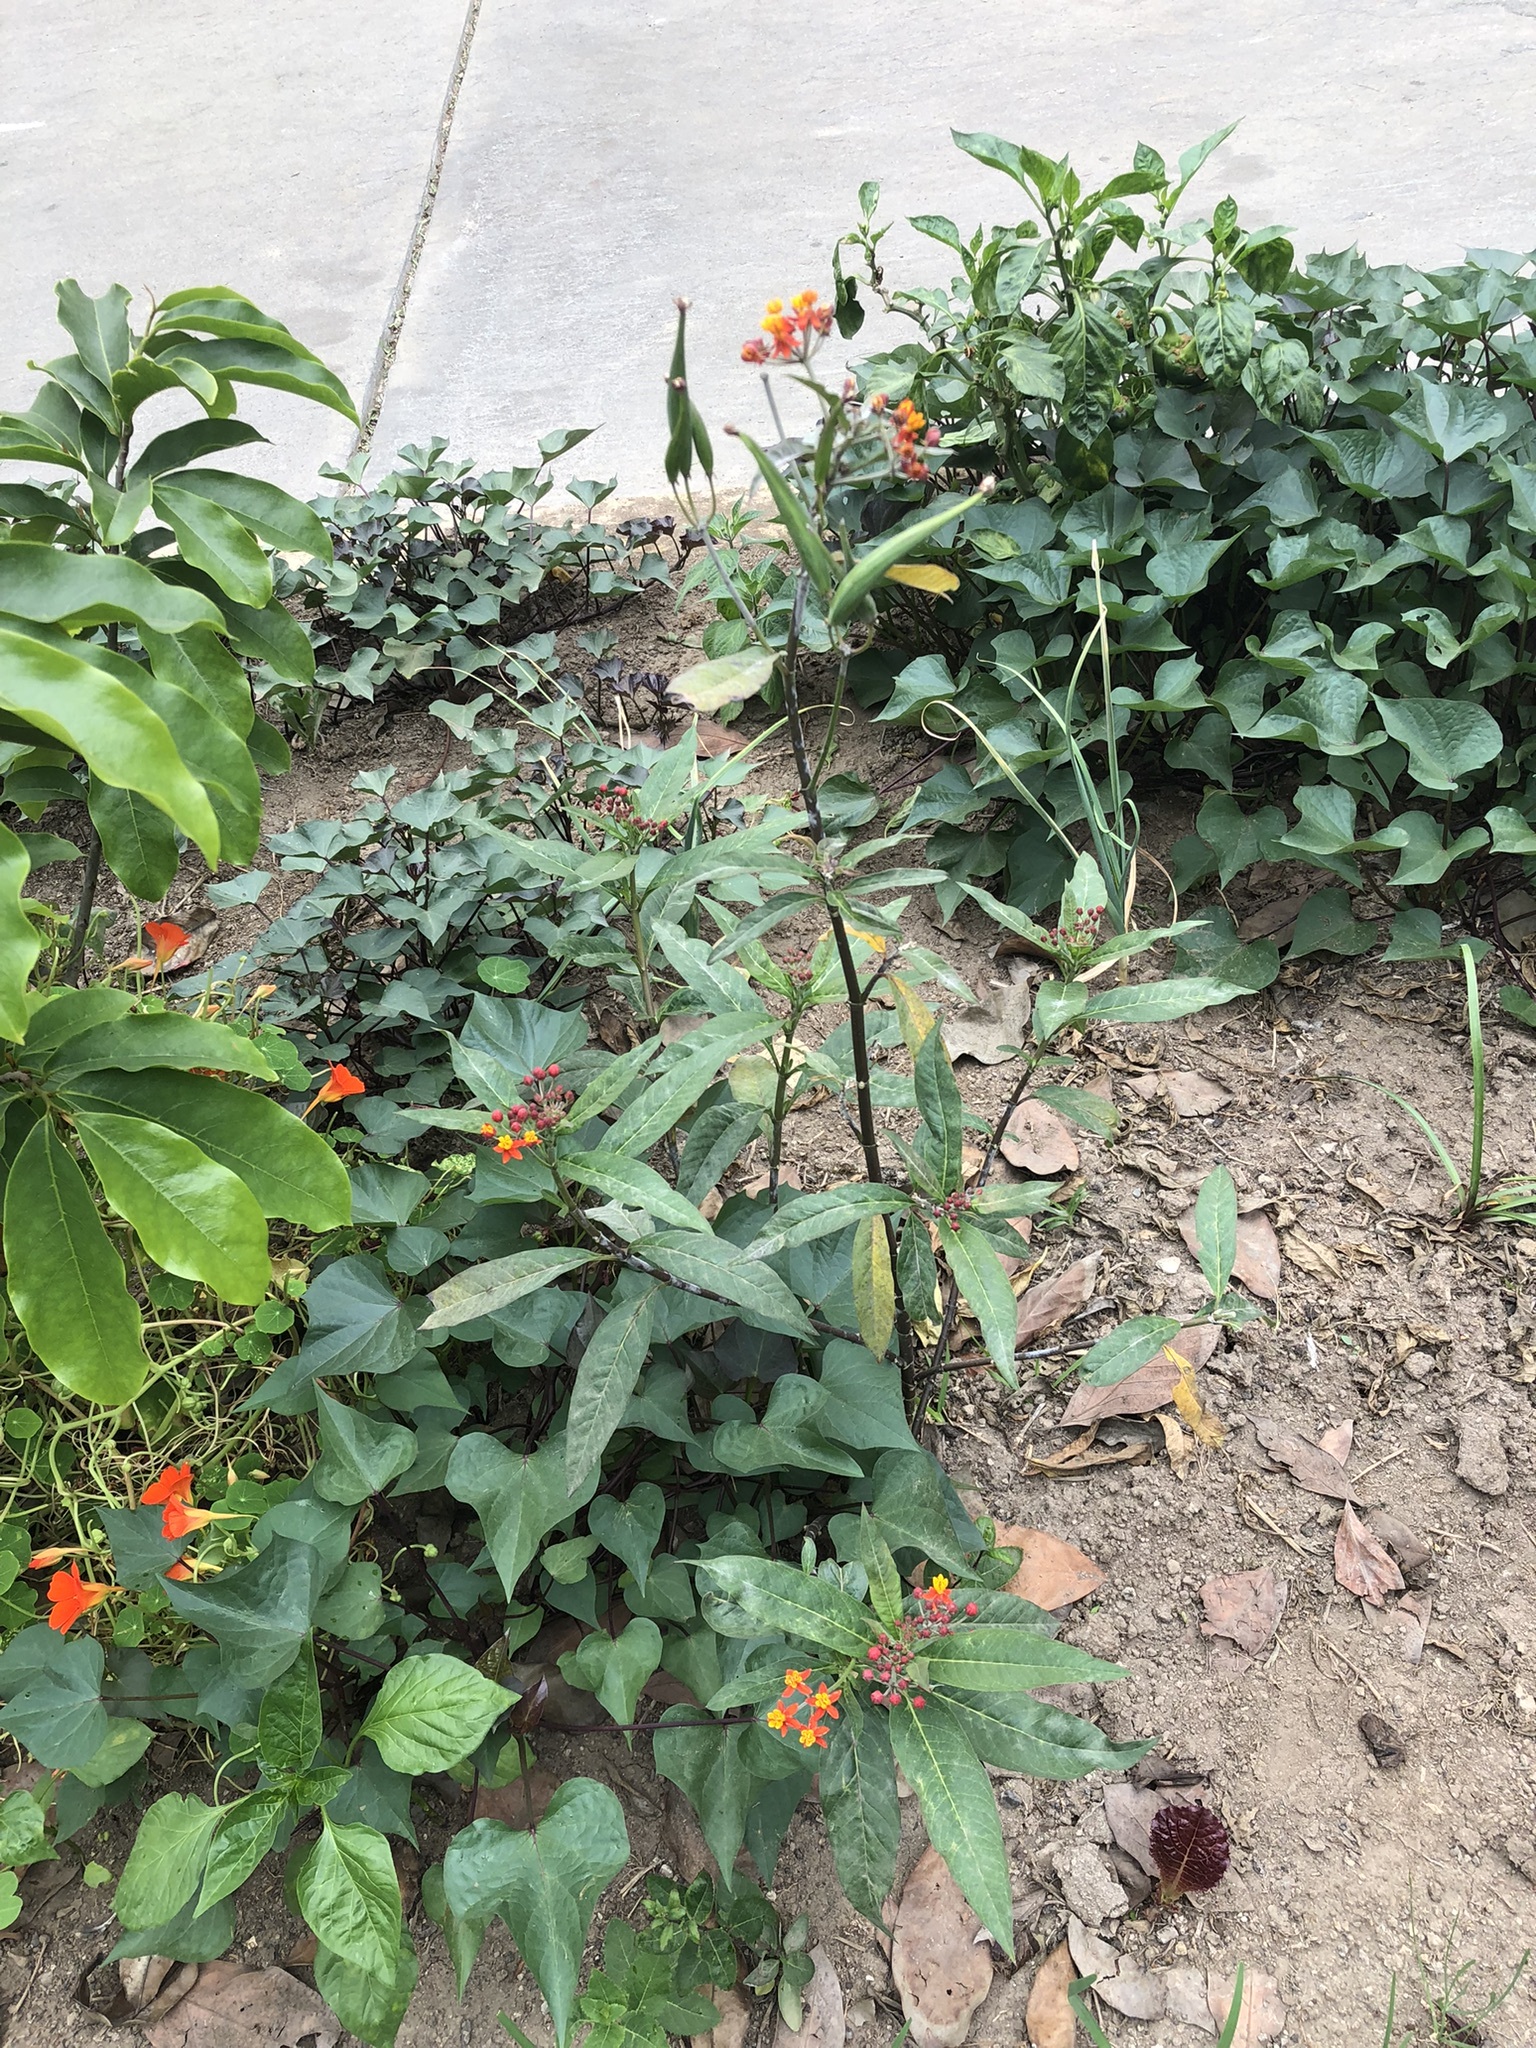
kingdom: Plantae
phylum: Tracheophyta
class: Magnoliopsida
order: Gentianales
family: Apocynaceae
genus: Asclepias
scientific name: Asclepias curassavica
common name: Bloodflower
